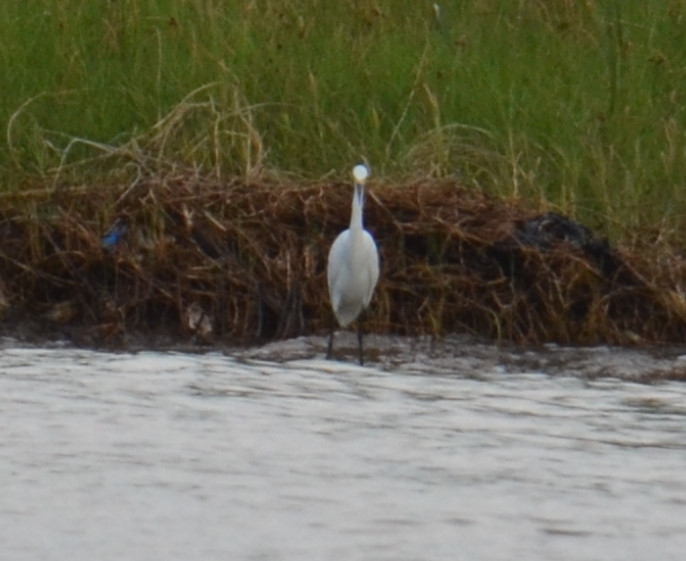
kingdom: Animalia
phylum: Chordata
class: Aves
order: Pelecaniformes
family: Ardeidae
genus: Egretta
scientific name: Egretta thula
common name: Snowy egret
